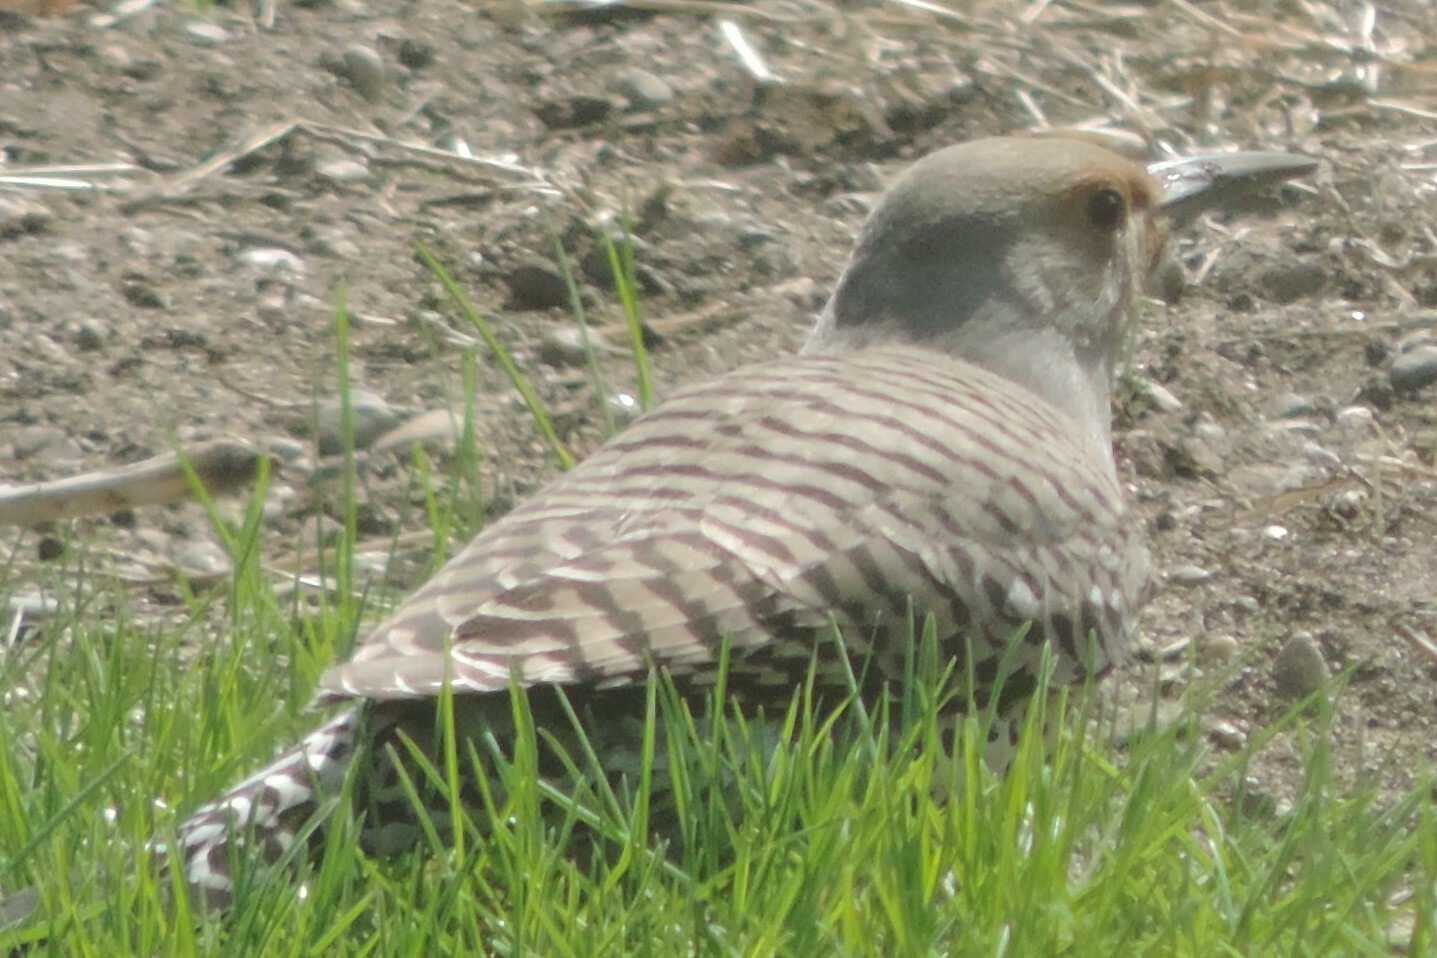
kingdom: Animalia
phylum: Chordata
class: Aves
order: Piciformes
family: Picidae
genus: Colaptes
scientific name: Colaptes auratus
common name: Northern flicker
